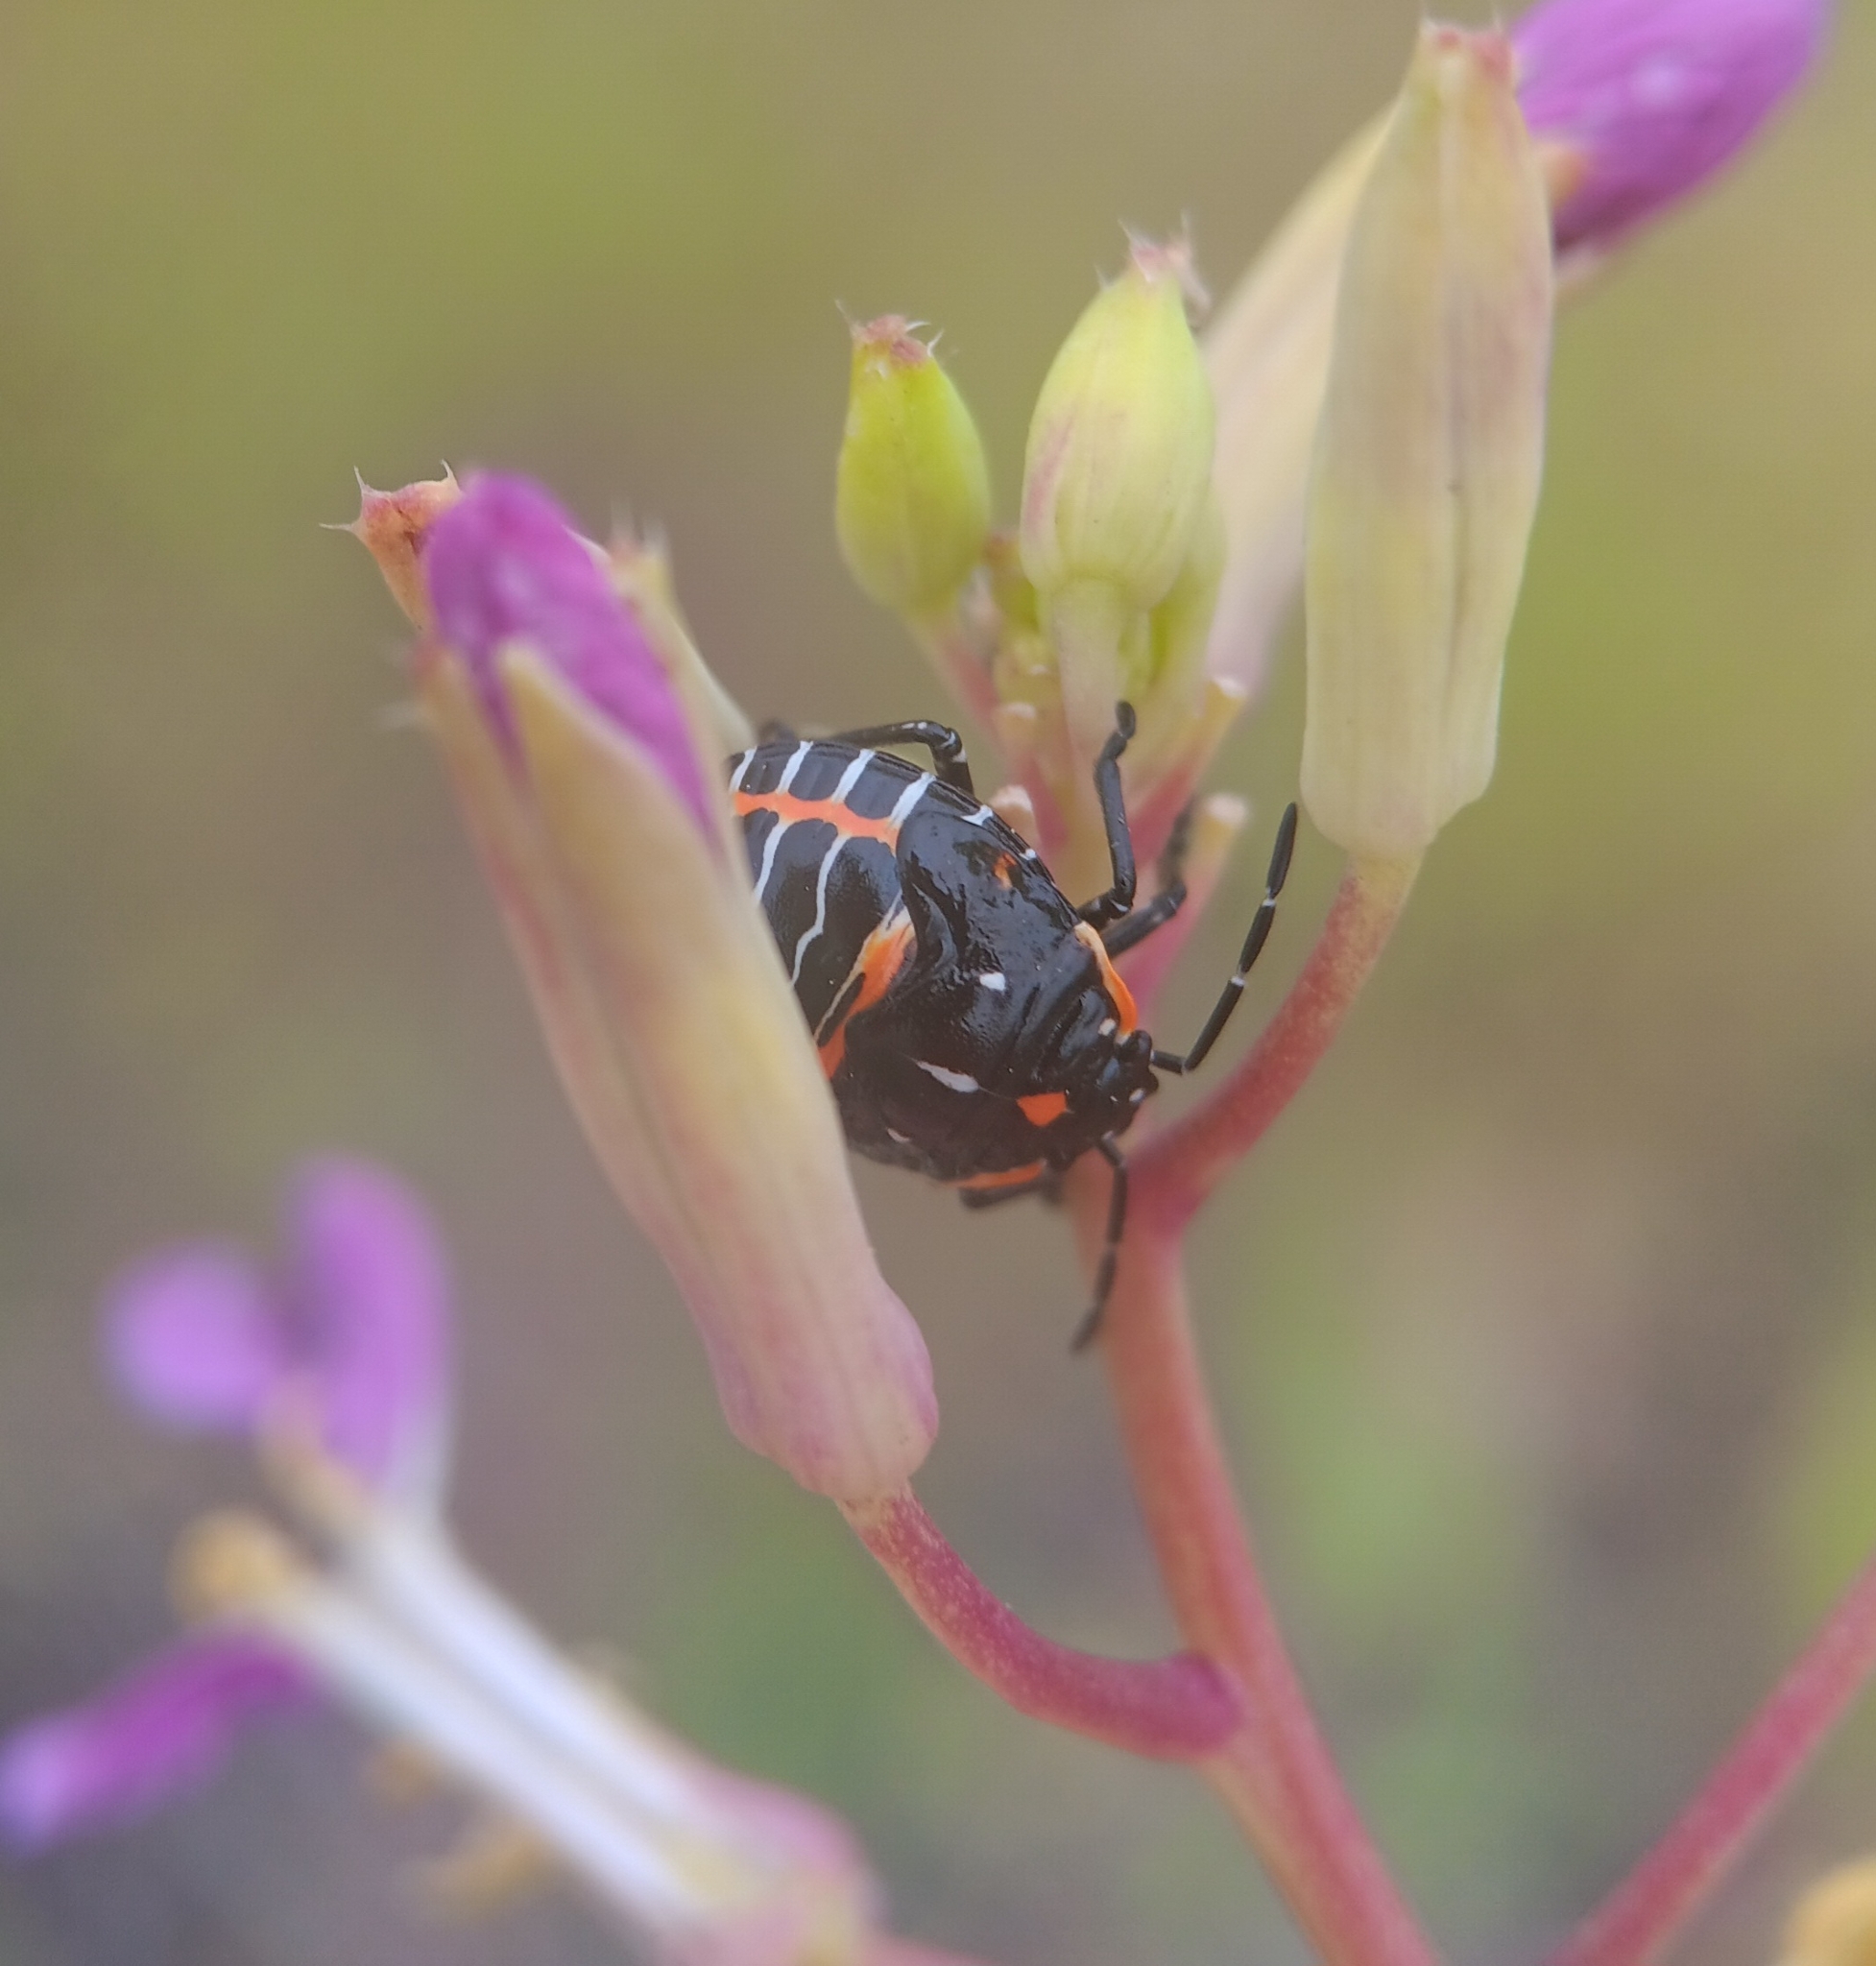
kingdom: Animalia
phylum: Arthropoda
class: Insecta
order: Hemiptera
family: Pentatomidae
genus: Murgantia
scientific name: Murgantia histrionica
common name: Harlequin bug
